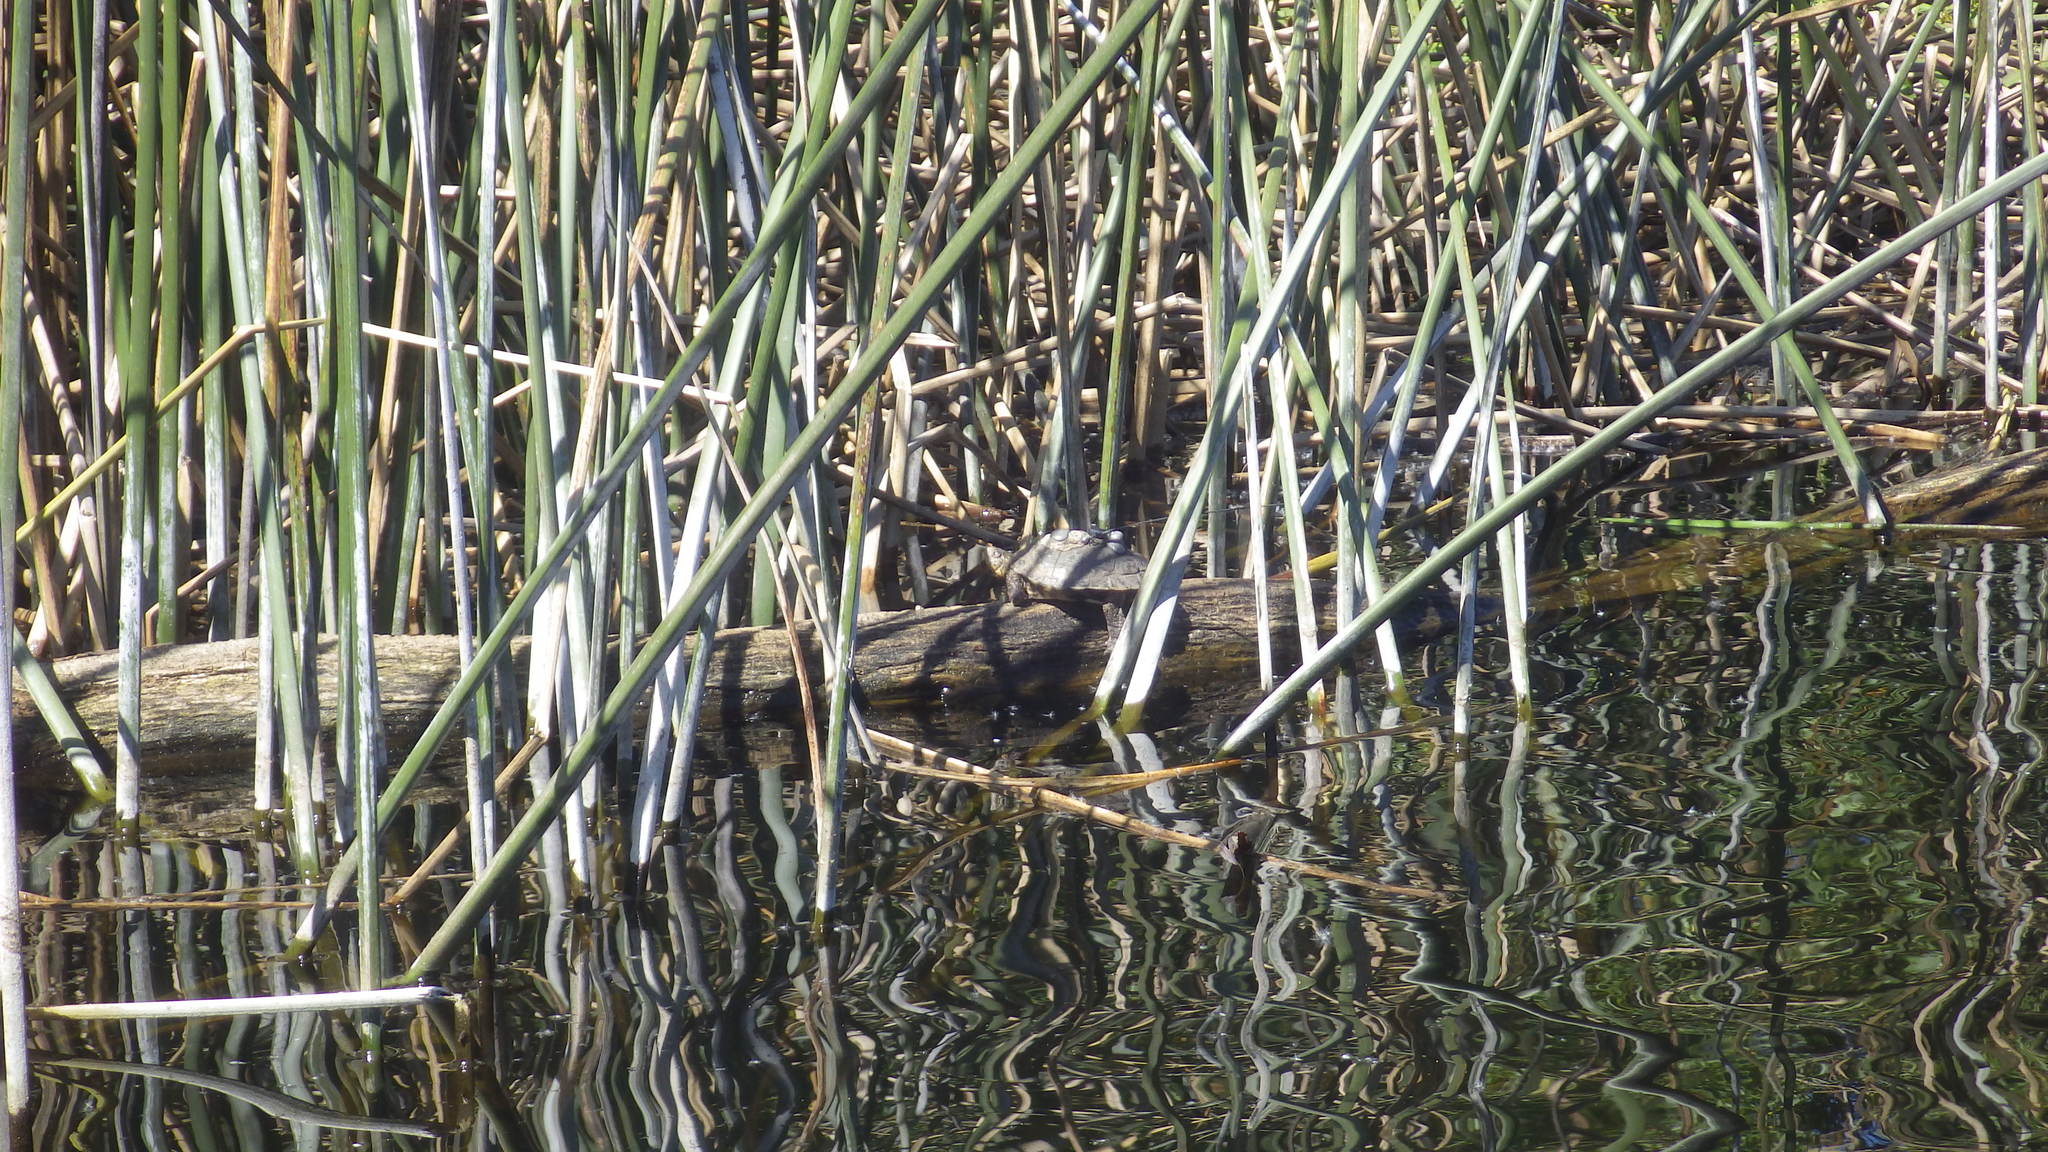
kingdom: Animalia
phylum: Chordata
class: Testudines
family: Emydidae
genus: Actinemys
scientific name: Actinemys marmorata
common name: Western pond turtle
